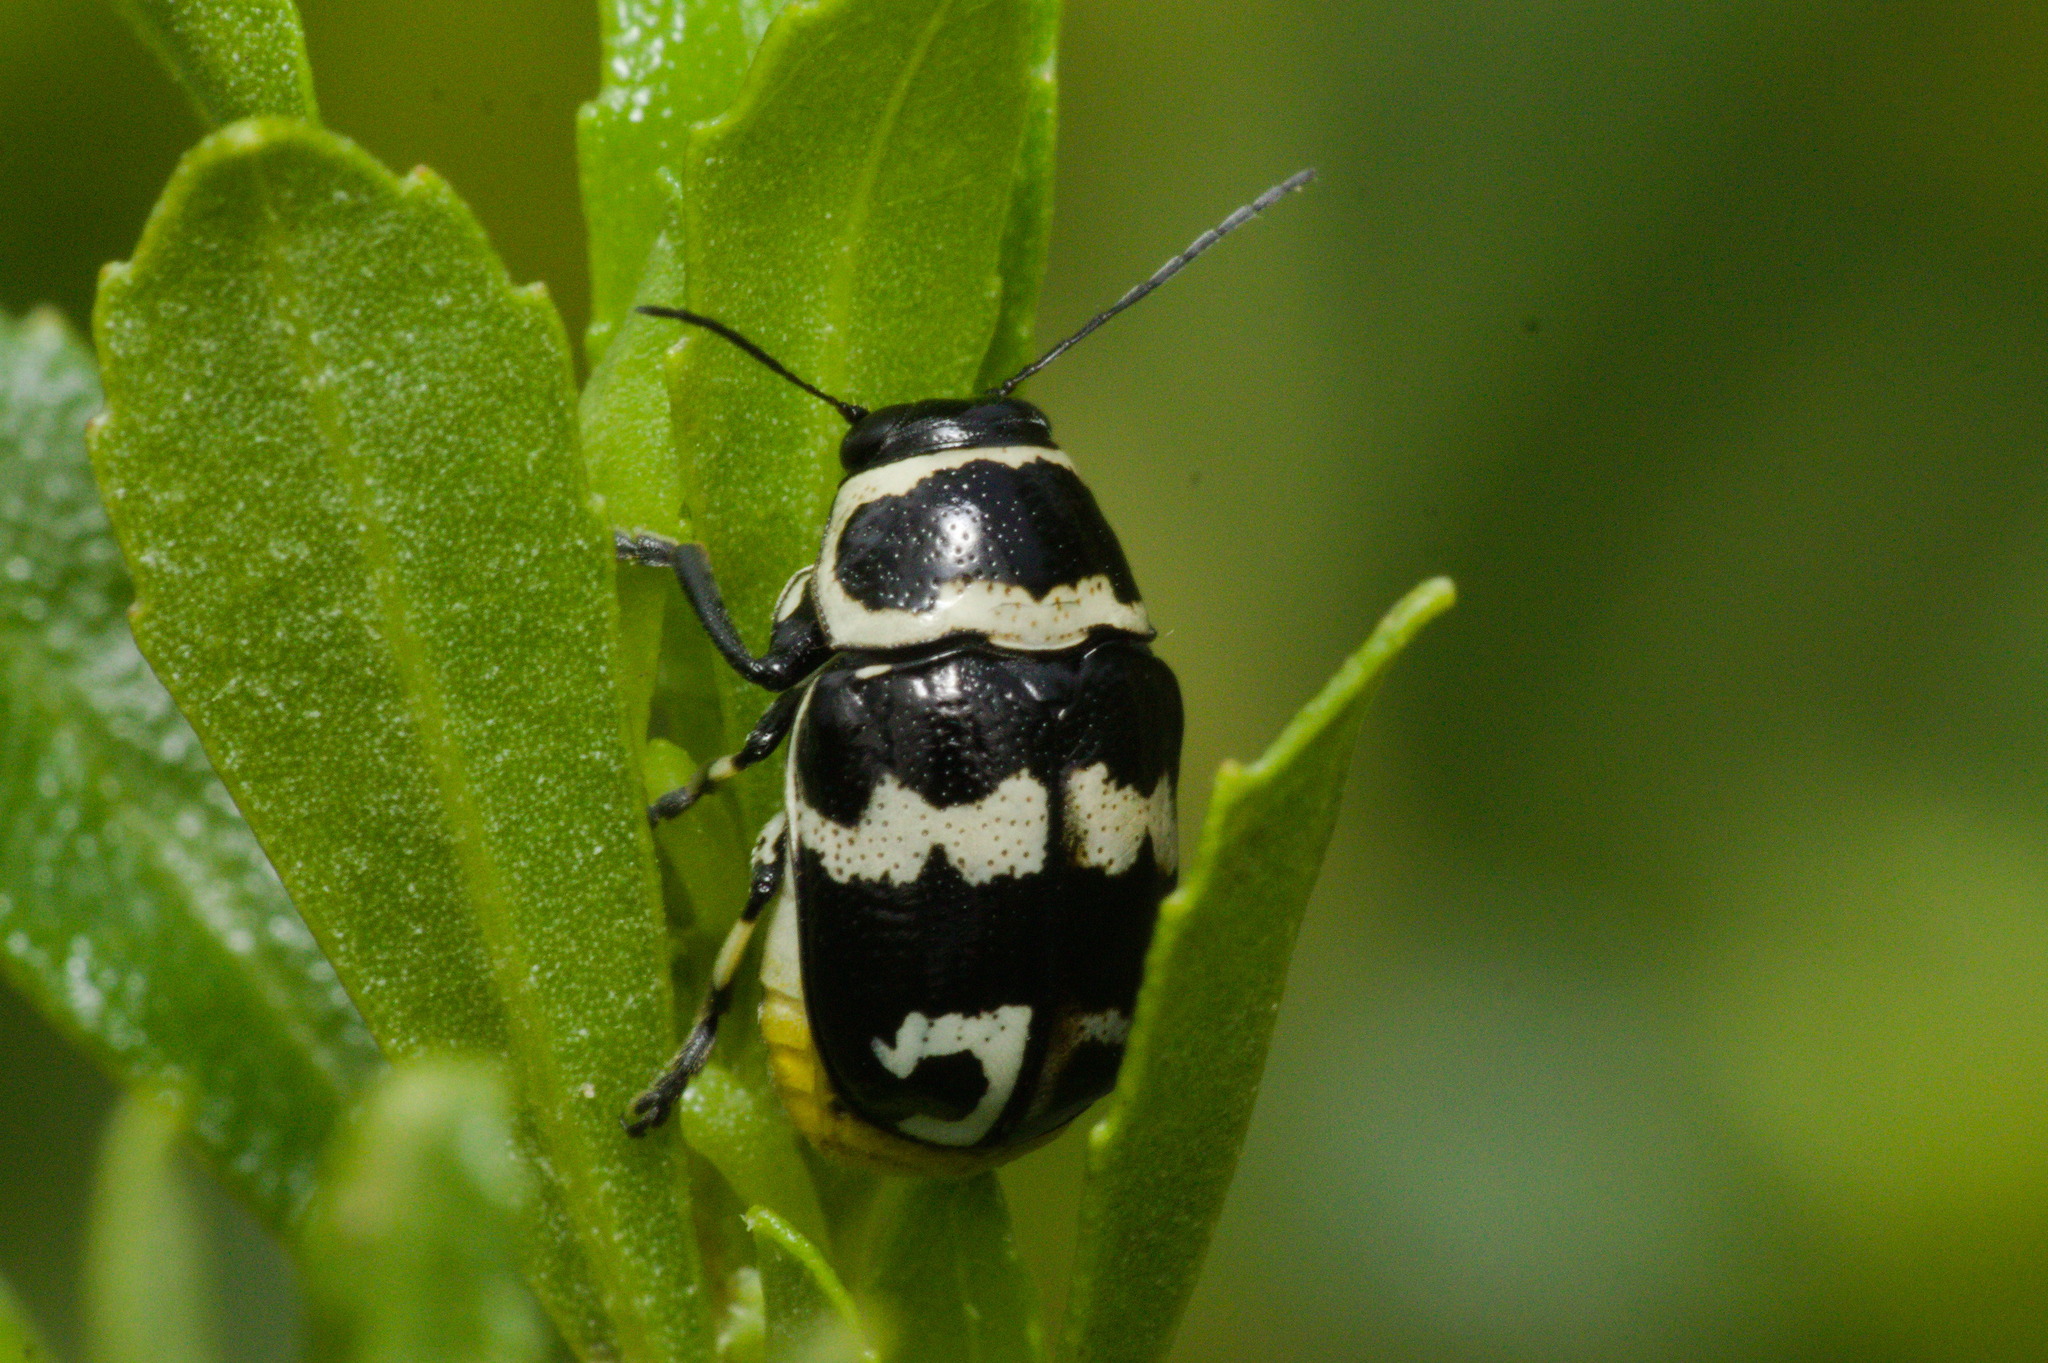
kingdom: Animalia
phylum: Arthropoda
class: Insecta
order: Coleoptera
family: Chrysomelidae
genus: Metallactus
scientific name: Metallactus albipes
